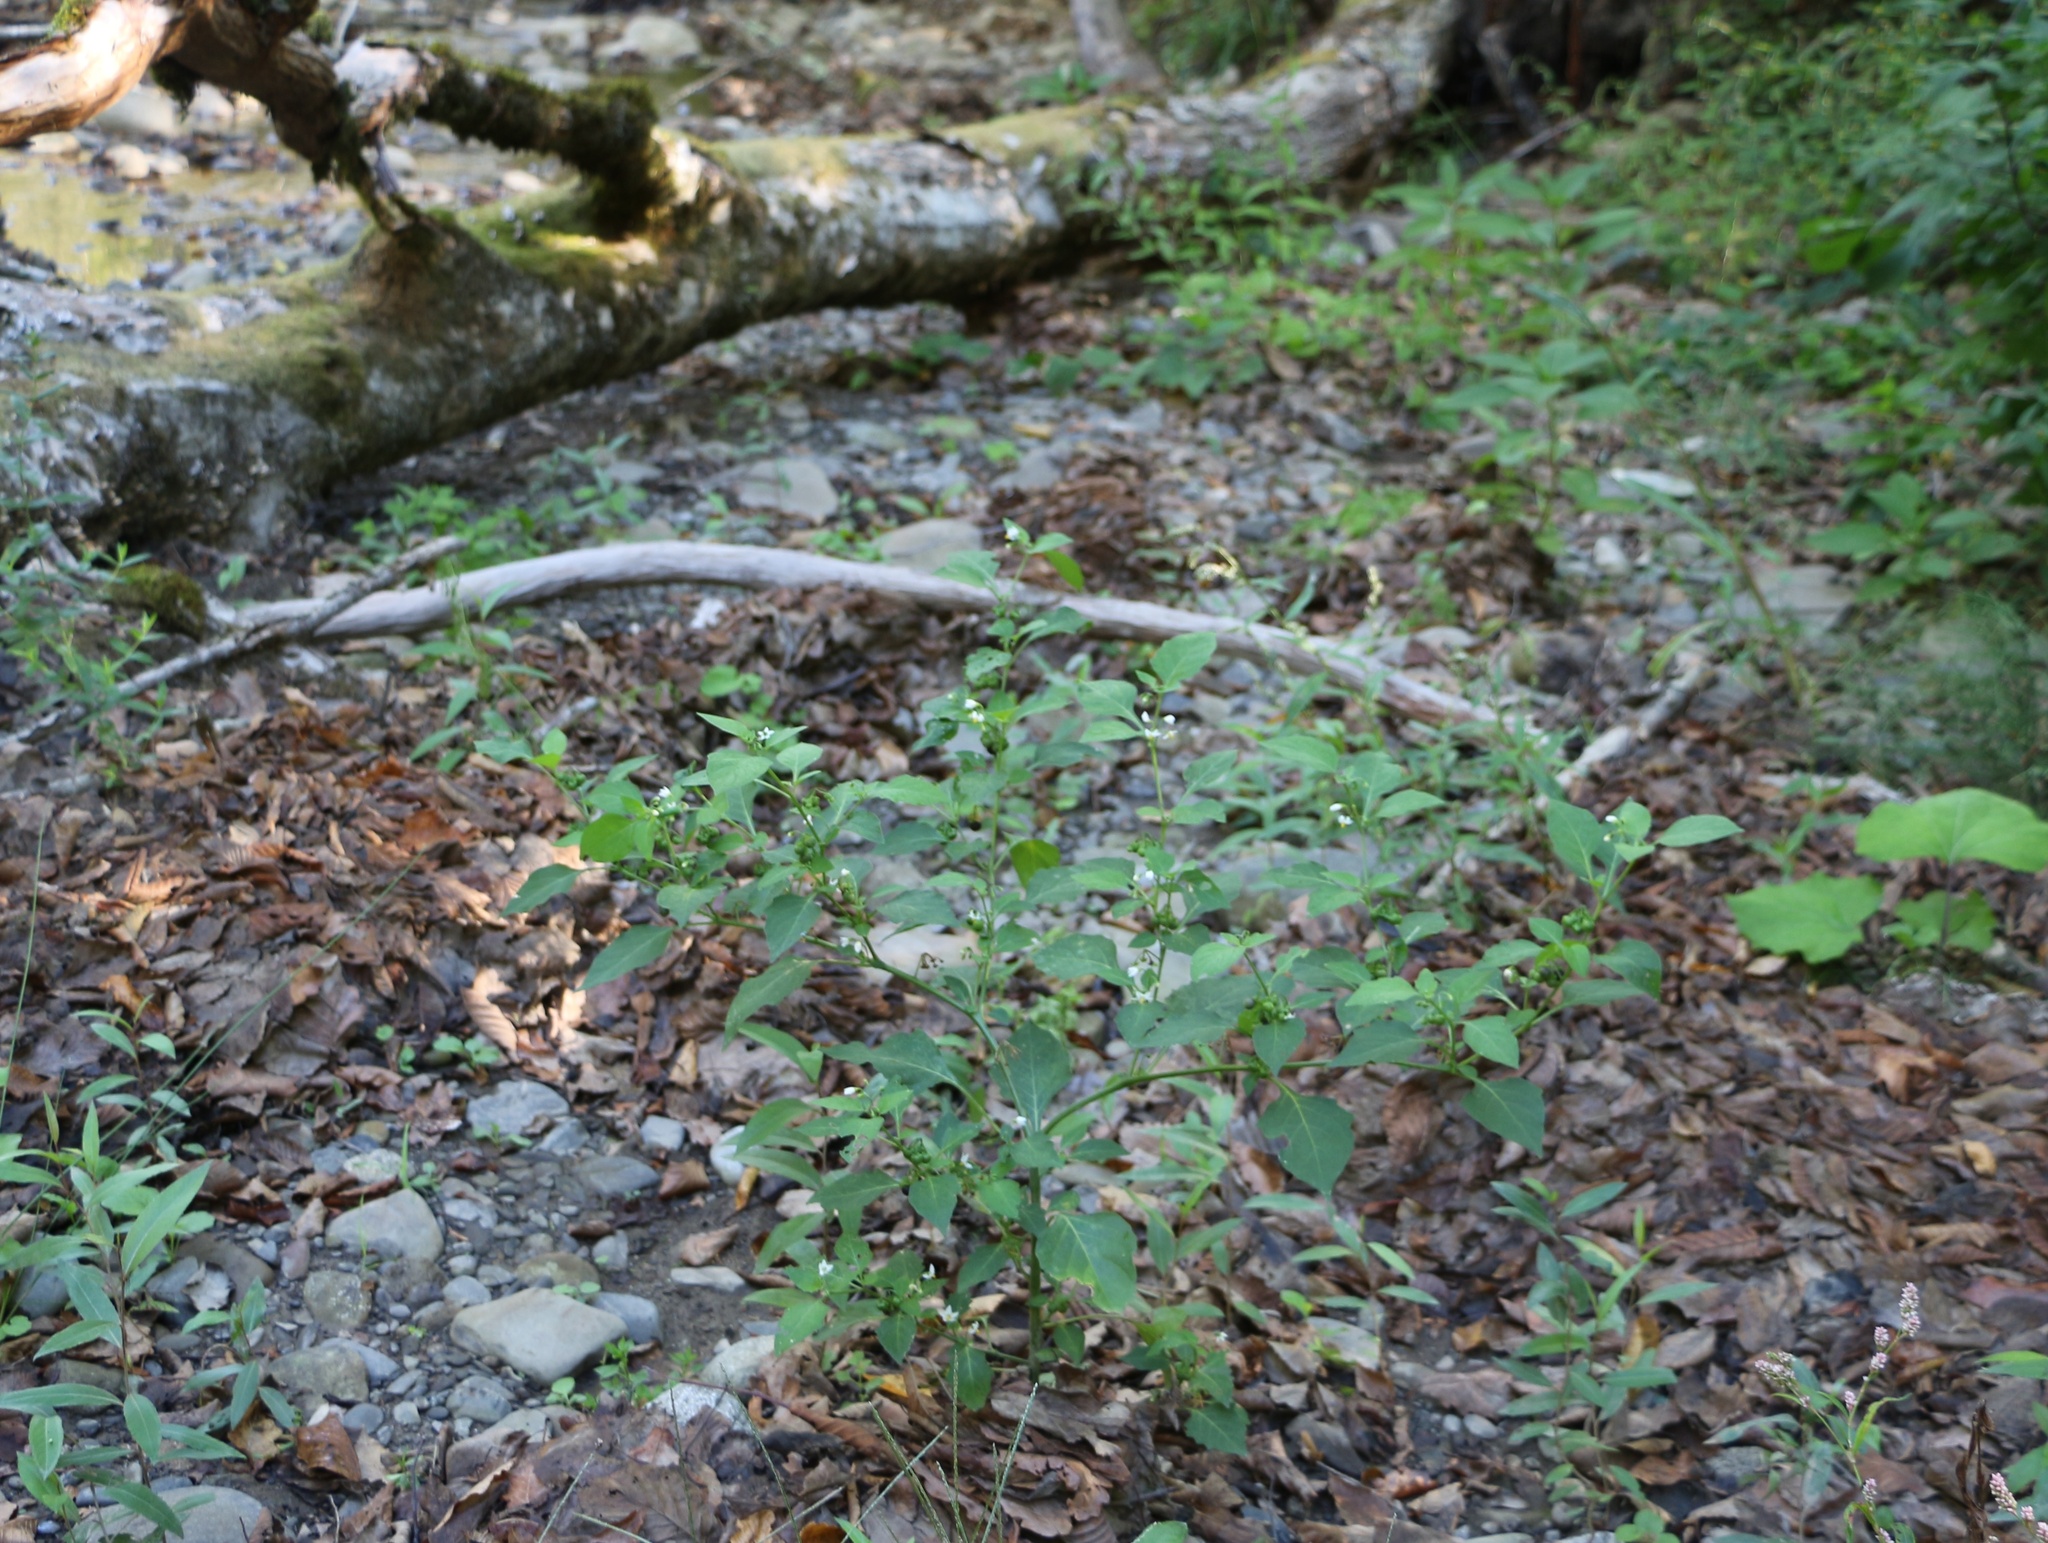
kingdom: Plantae
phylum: Tracheophyta
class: Magnoliopsida
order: Solanales
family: Solanaceae
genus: Solanum
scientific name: Solanum nigrum
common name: Black nightshade
